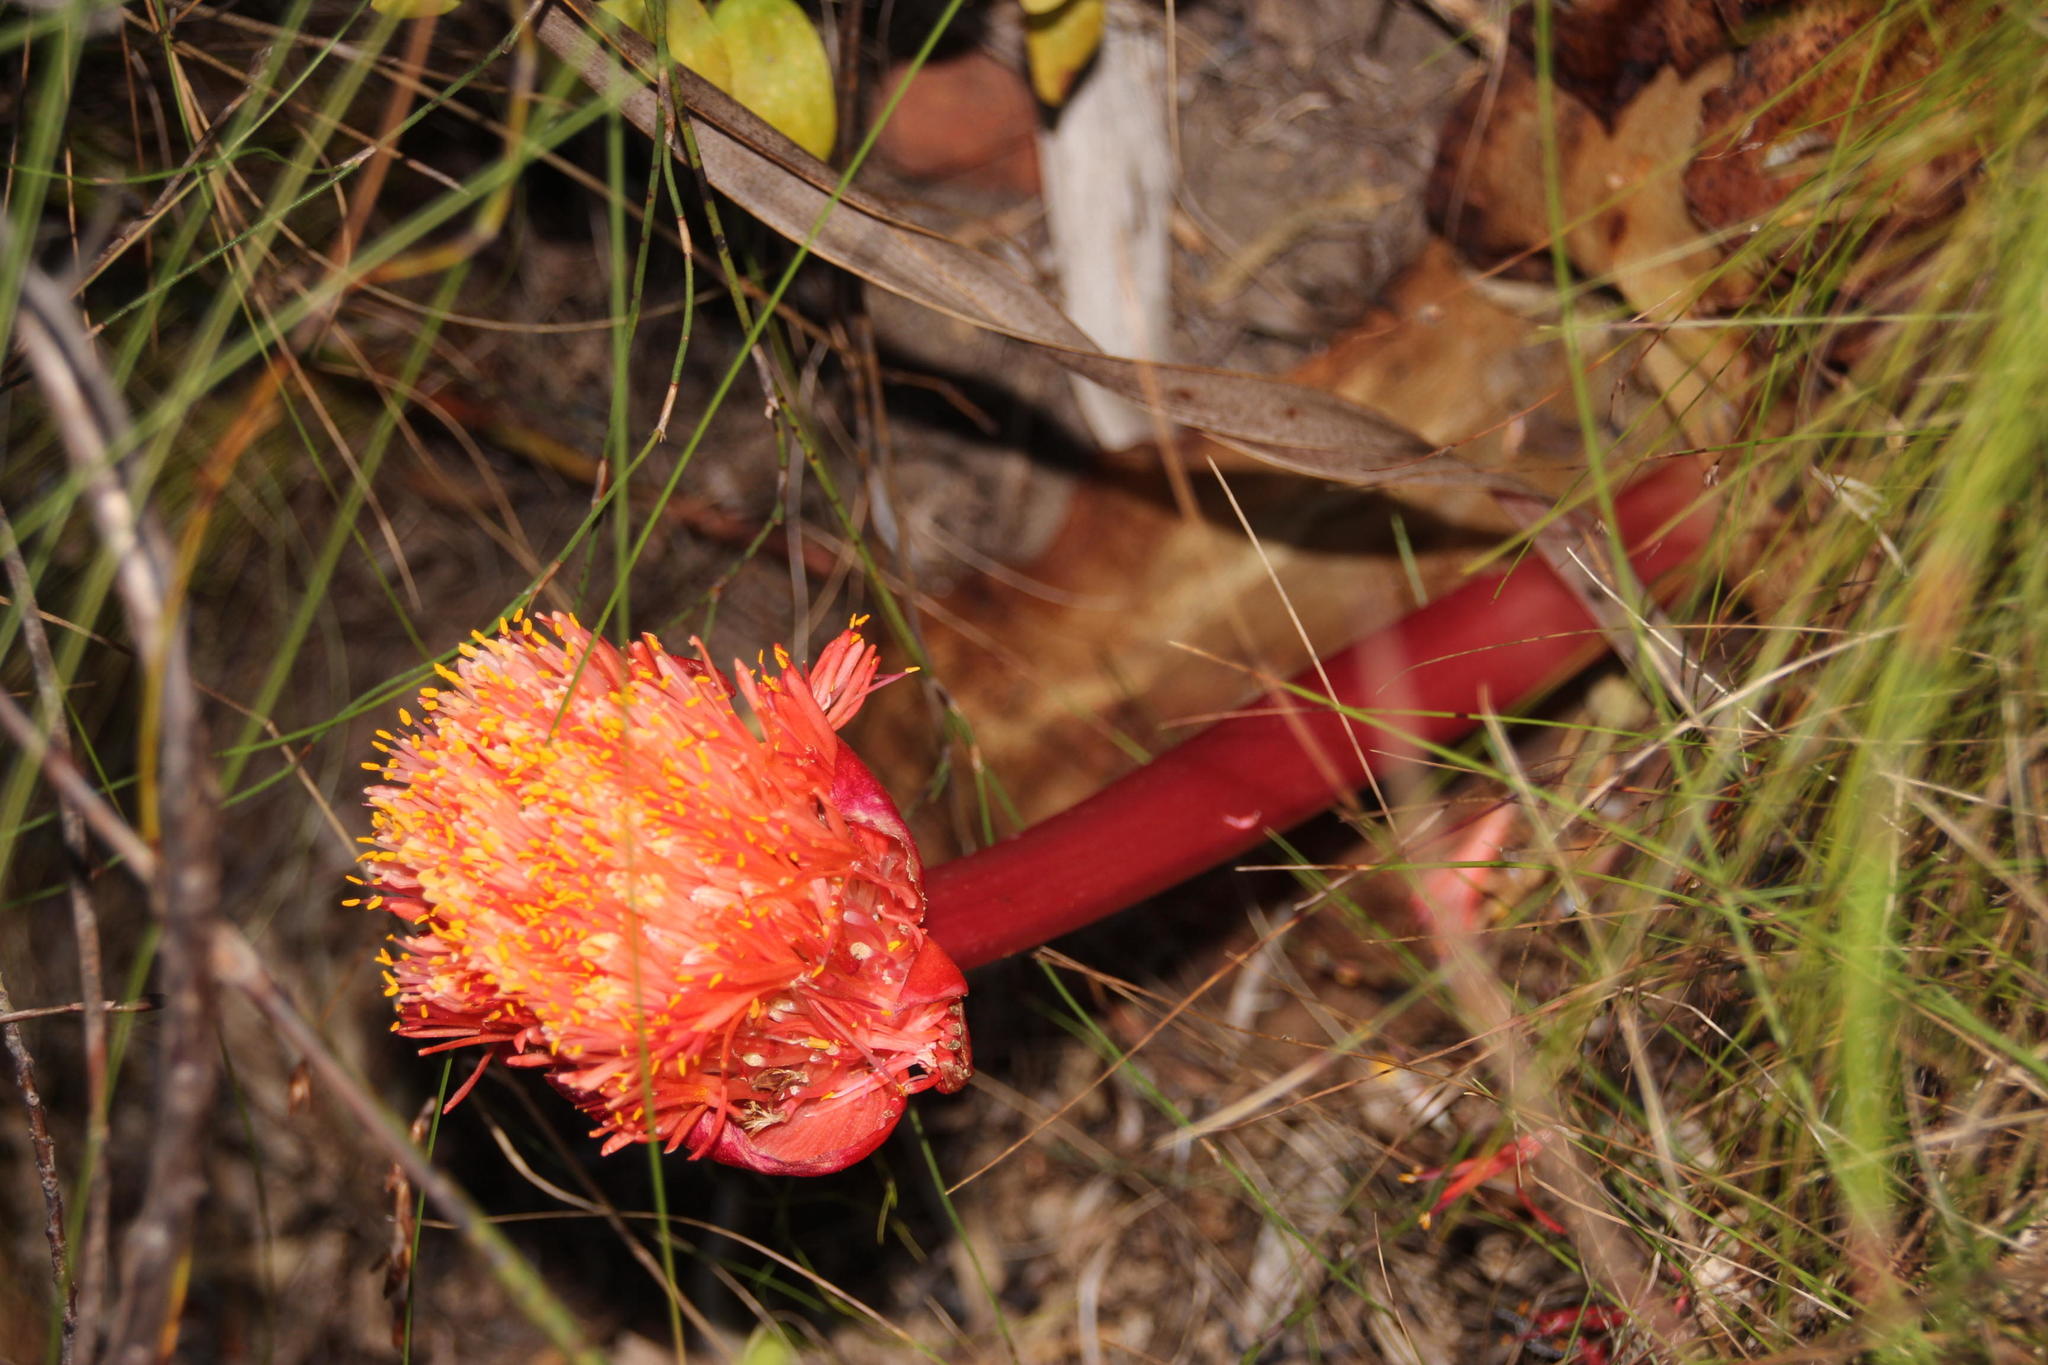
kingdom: Plantae
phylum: Tracheophyta
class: Liliopsida
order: Asparagales
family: Amaryllidaceae
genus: Haemanthus
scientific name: Haemanthus sanguineus
